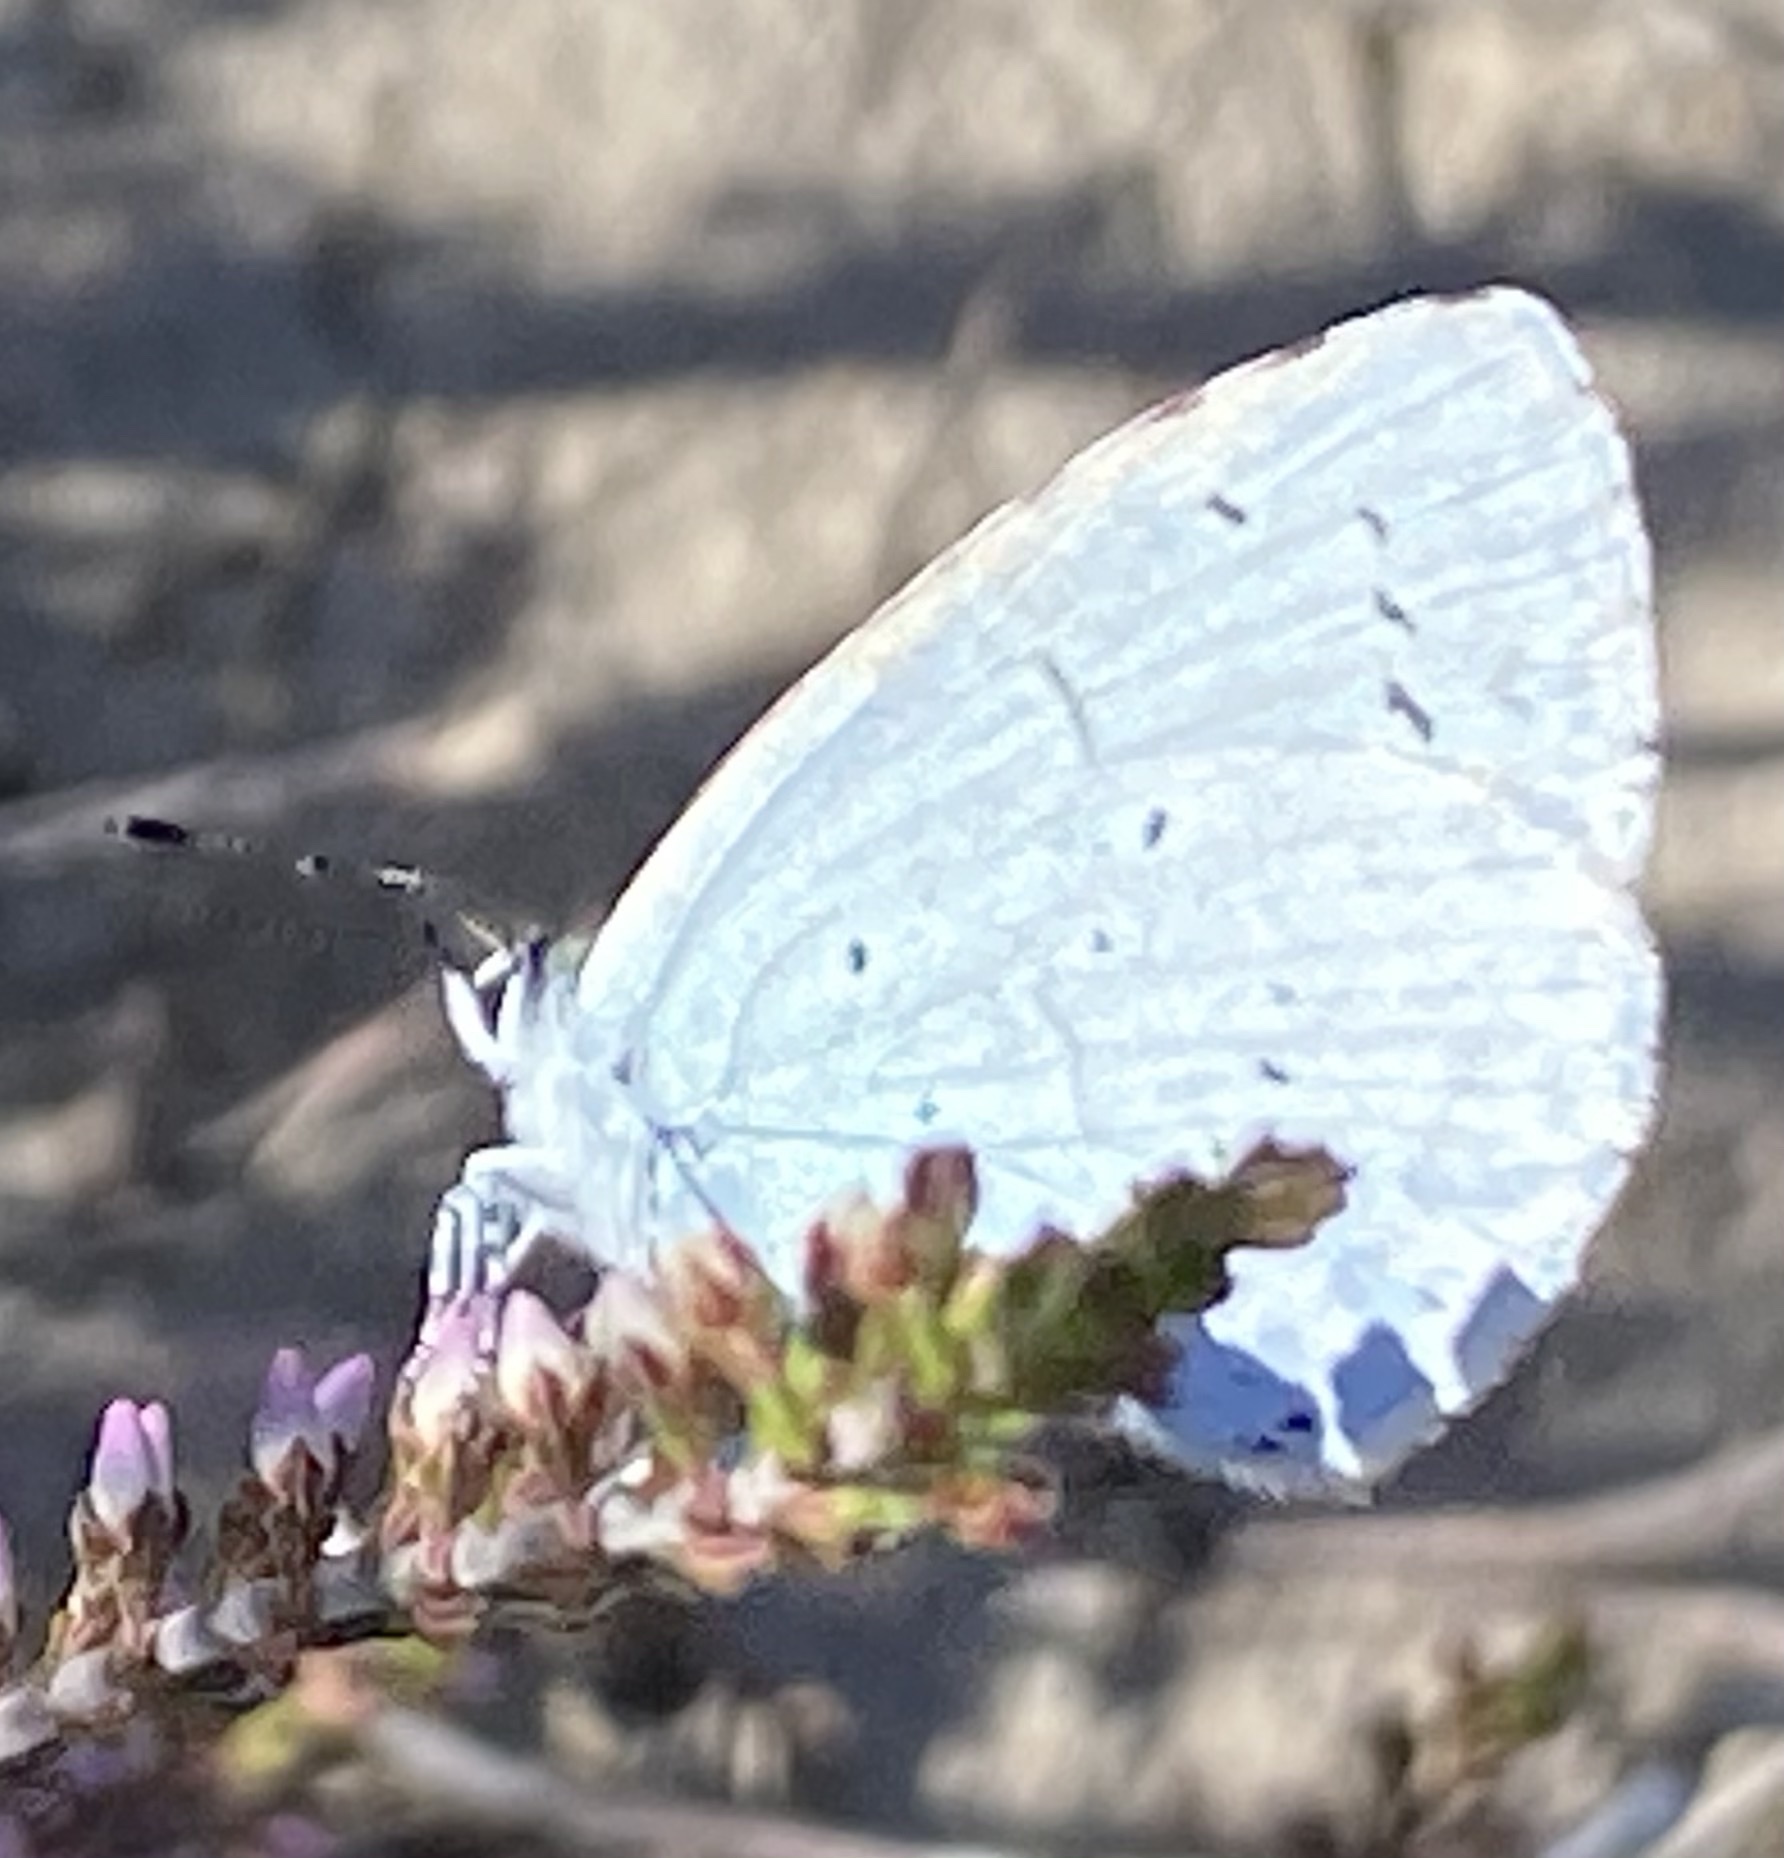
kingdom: Animalia
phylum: Arthropoda
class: Insecta
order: Lepidoptera
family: Lycaenidae
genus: Celastrina
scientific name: Celastrina argiolus
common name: Holly blue
